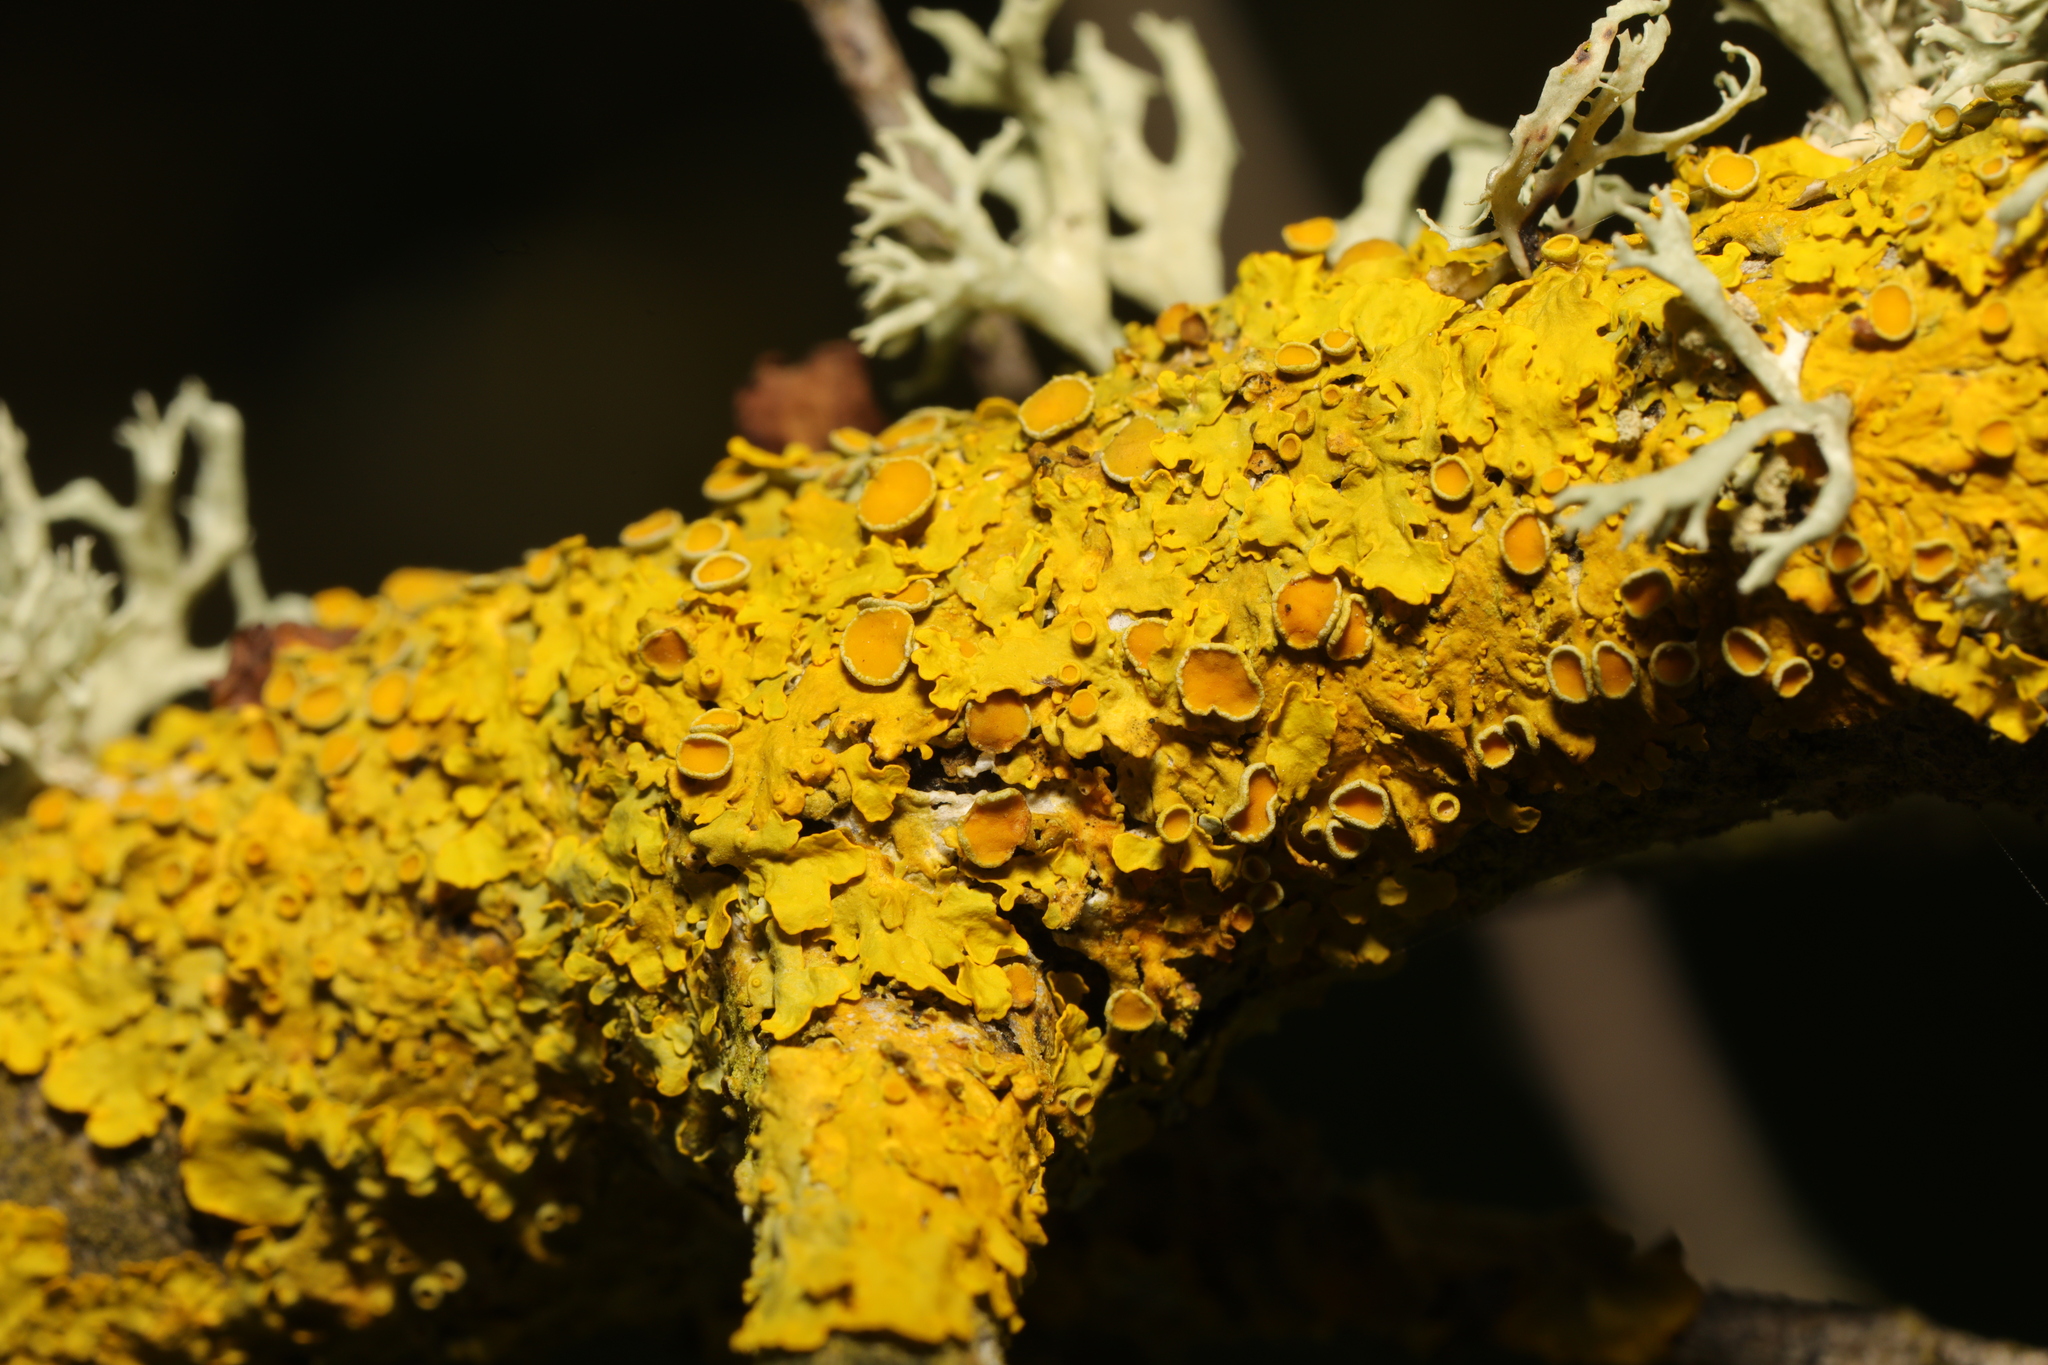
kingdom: Fungi
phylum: Ascomycota
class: Lecanoromycetes
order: Teloschistales
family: Teloschistaceae
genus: Xanthoria
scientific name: Xanthoria parietina
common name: Common orange lichen
